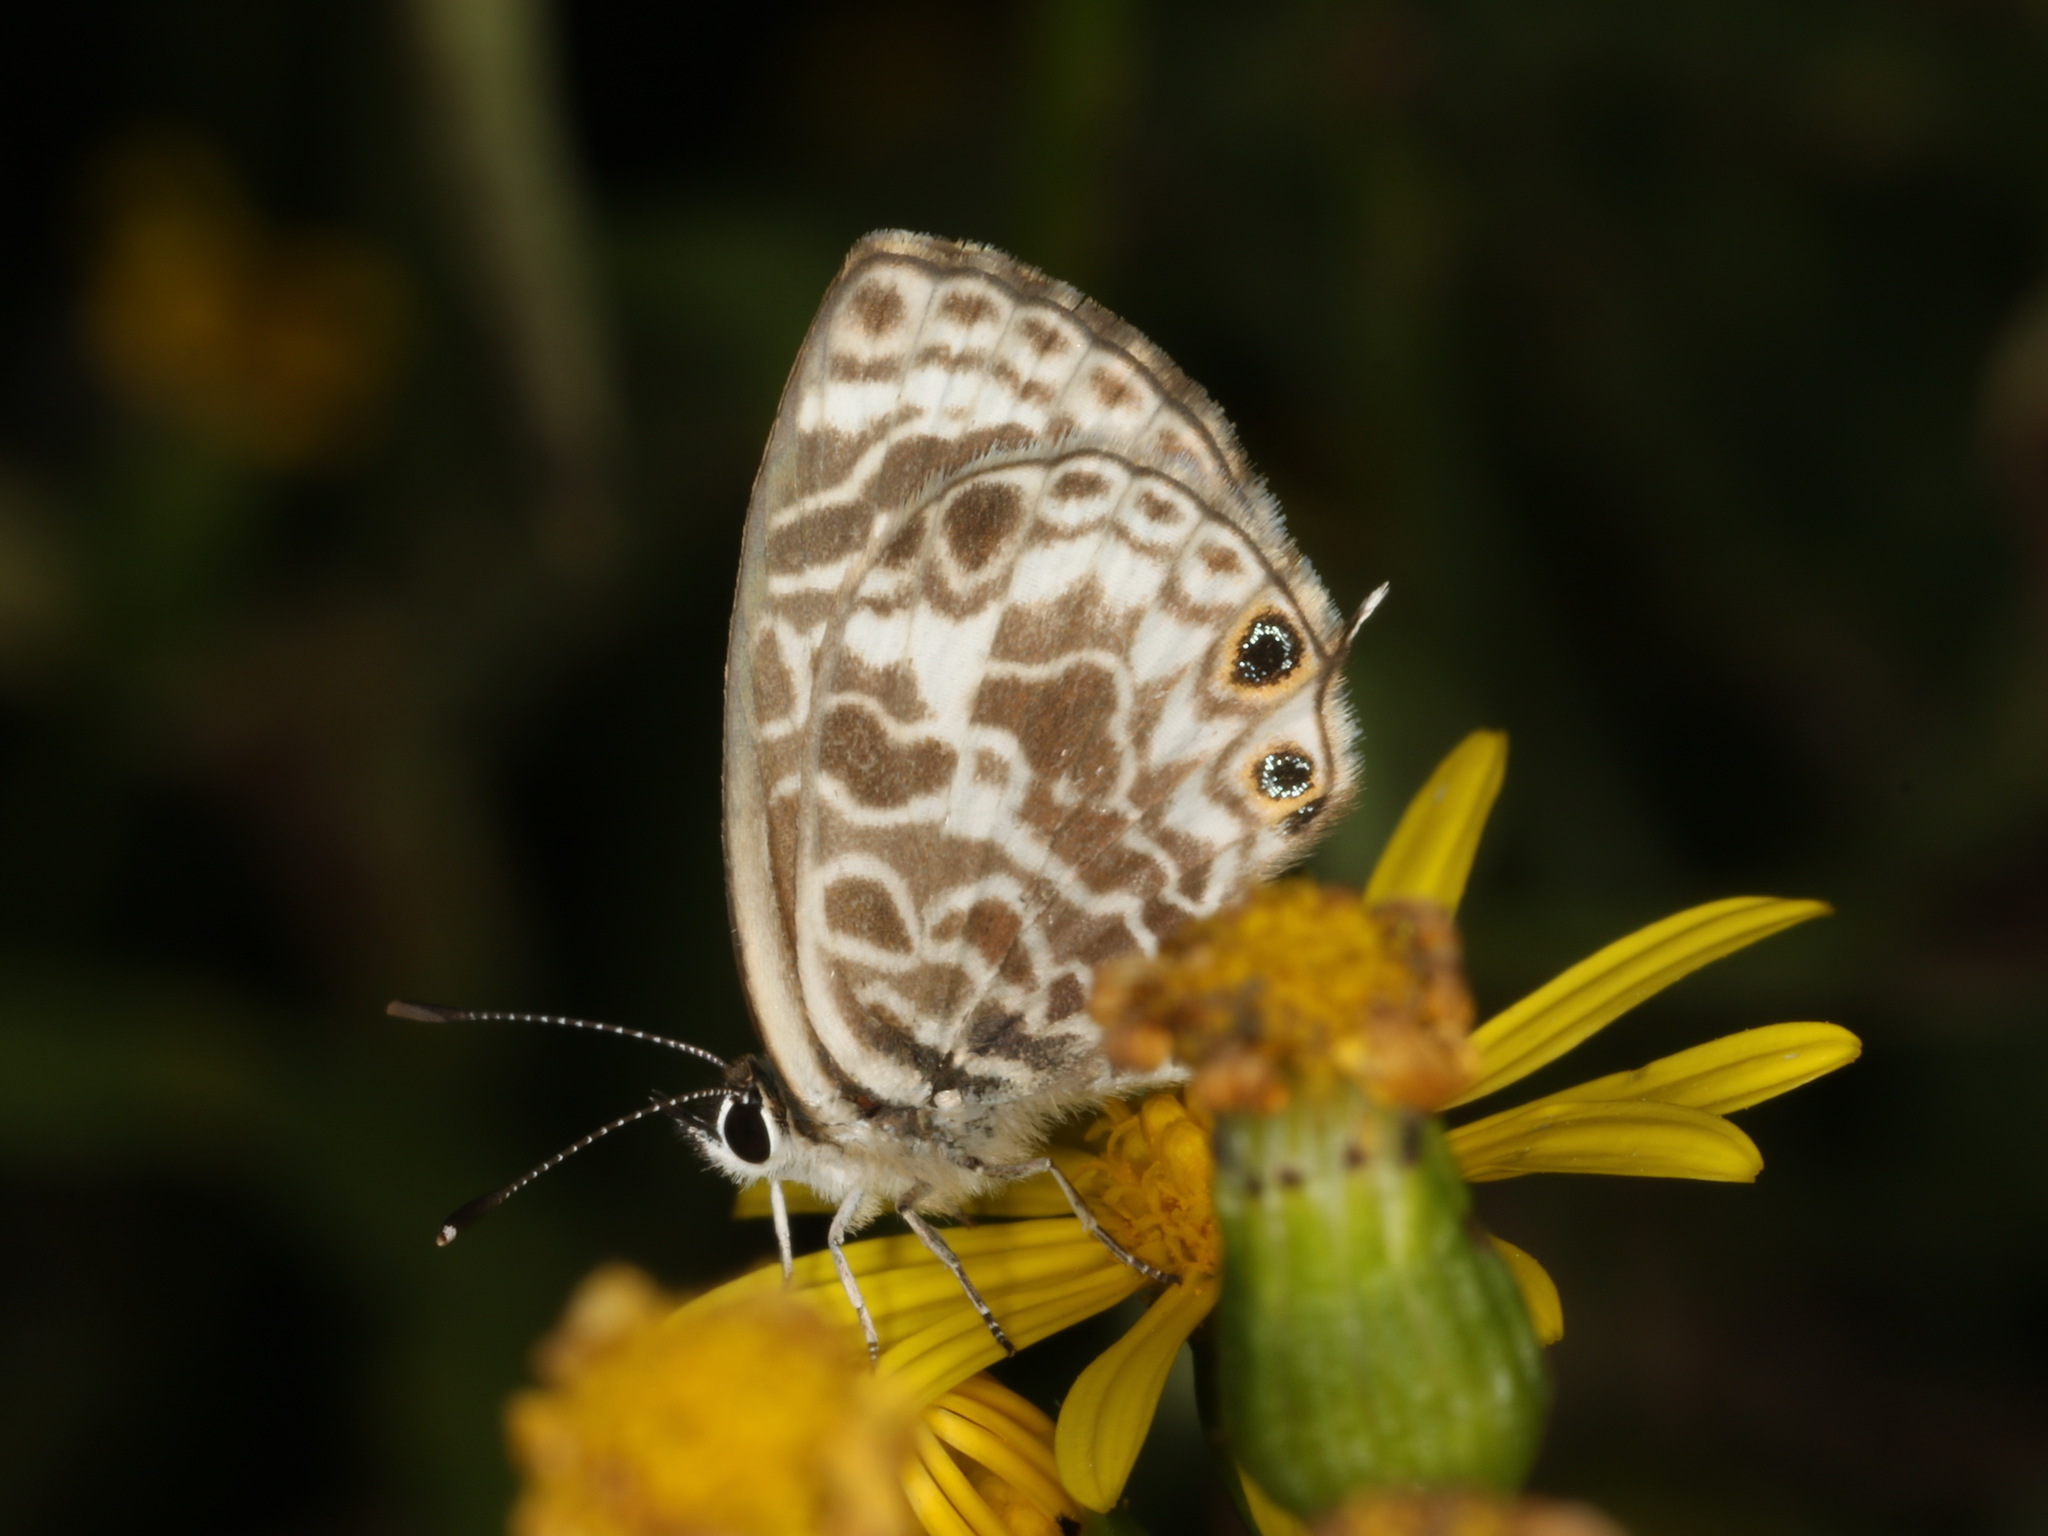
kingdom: Animalia
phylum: Arthropoda
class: Insecta
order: Lepidoptera
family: Lycaenidae
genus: Leptotes
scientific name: Leptotes plinius
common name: Zebra blue
